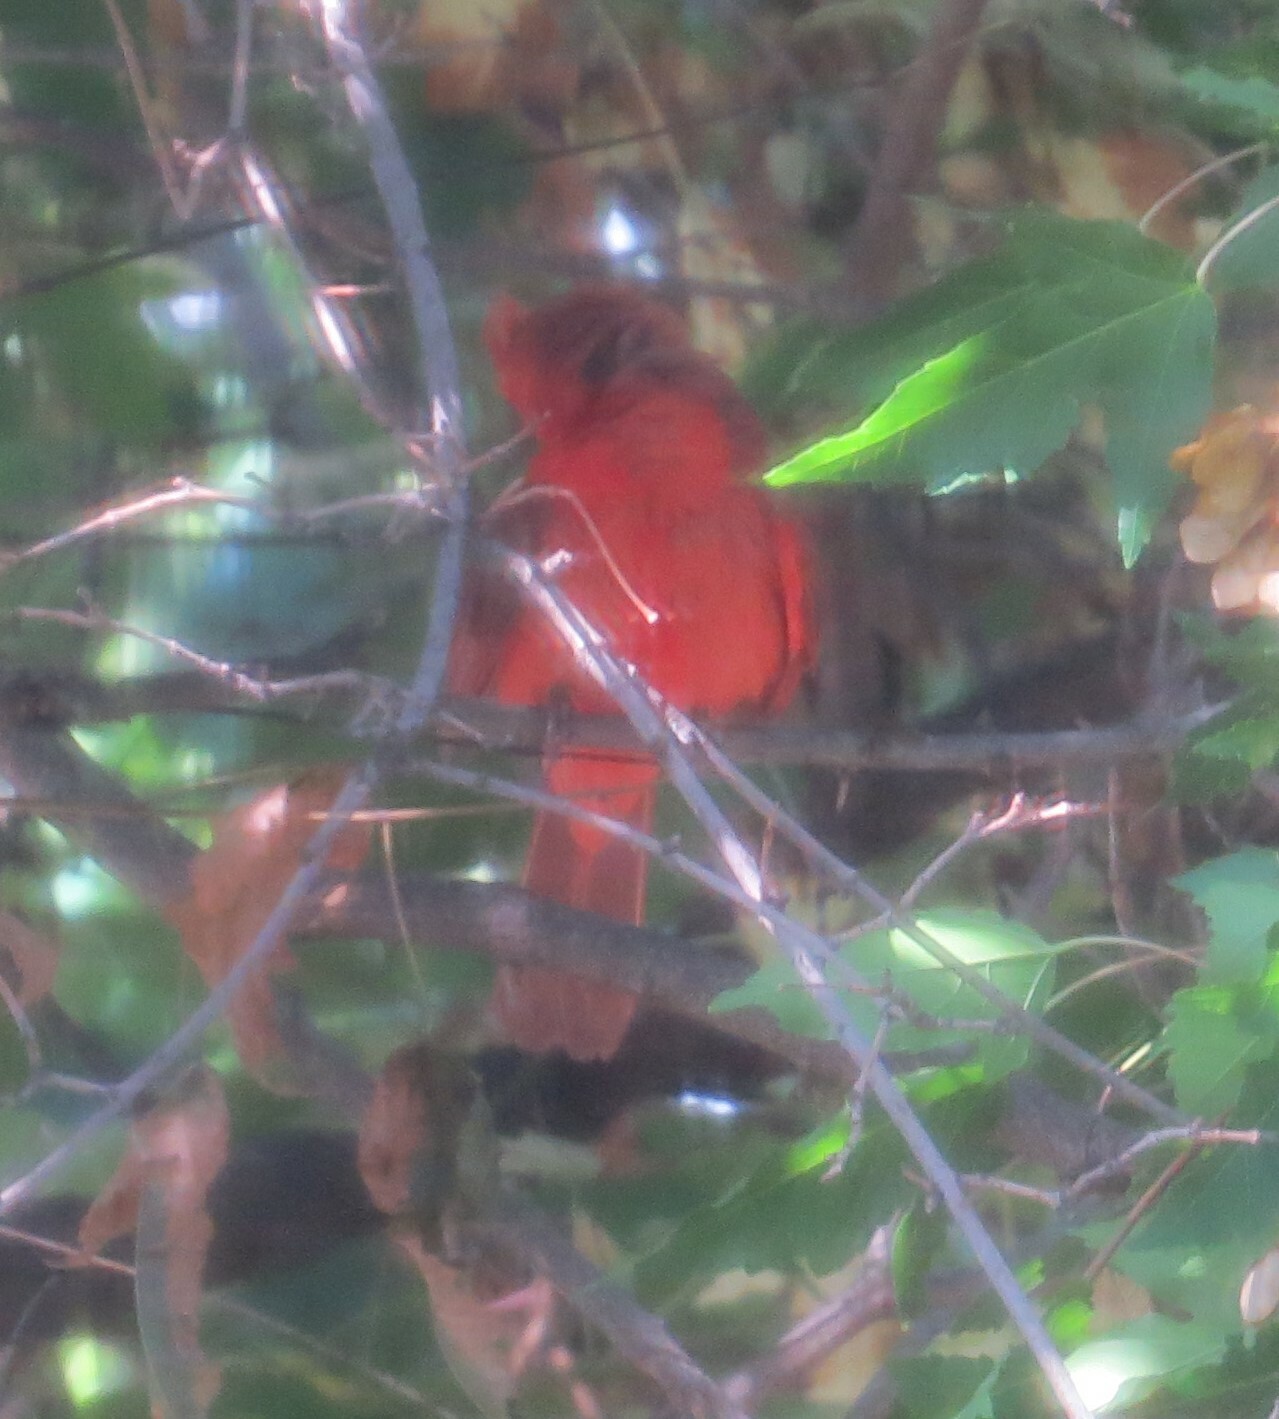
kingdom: Animalia
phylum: Chordata
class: Aves
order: Passeriformes
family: Cardinalidae
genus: Cardinalis
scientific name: Cardinalis cardinalis
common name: Northern cardinal
